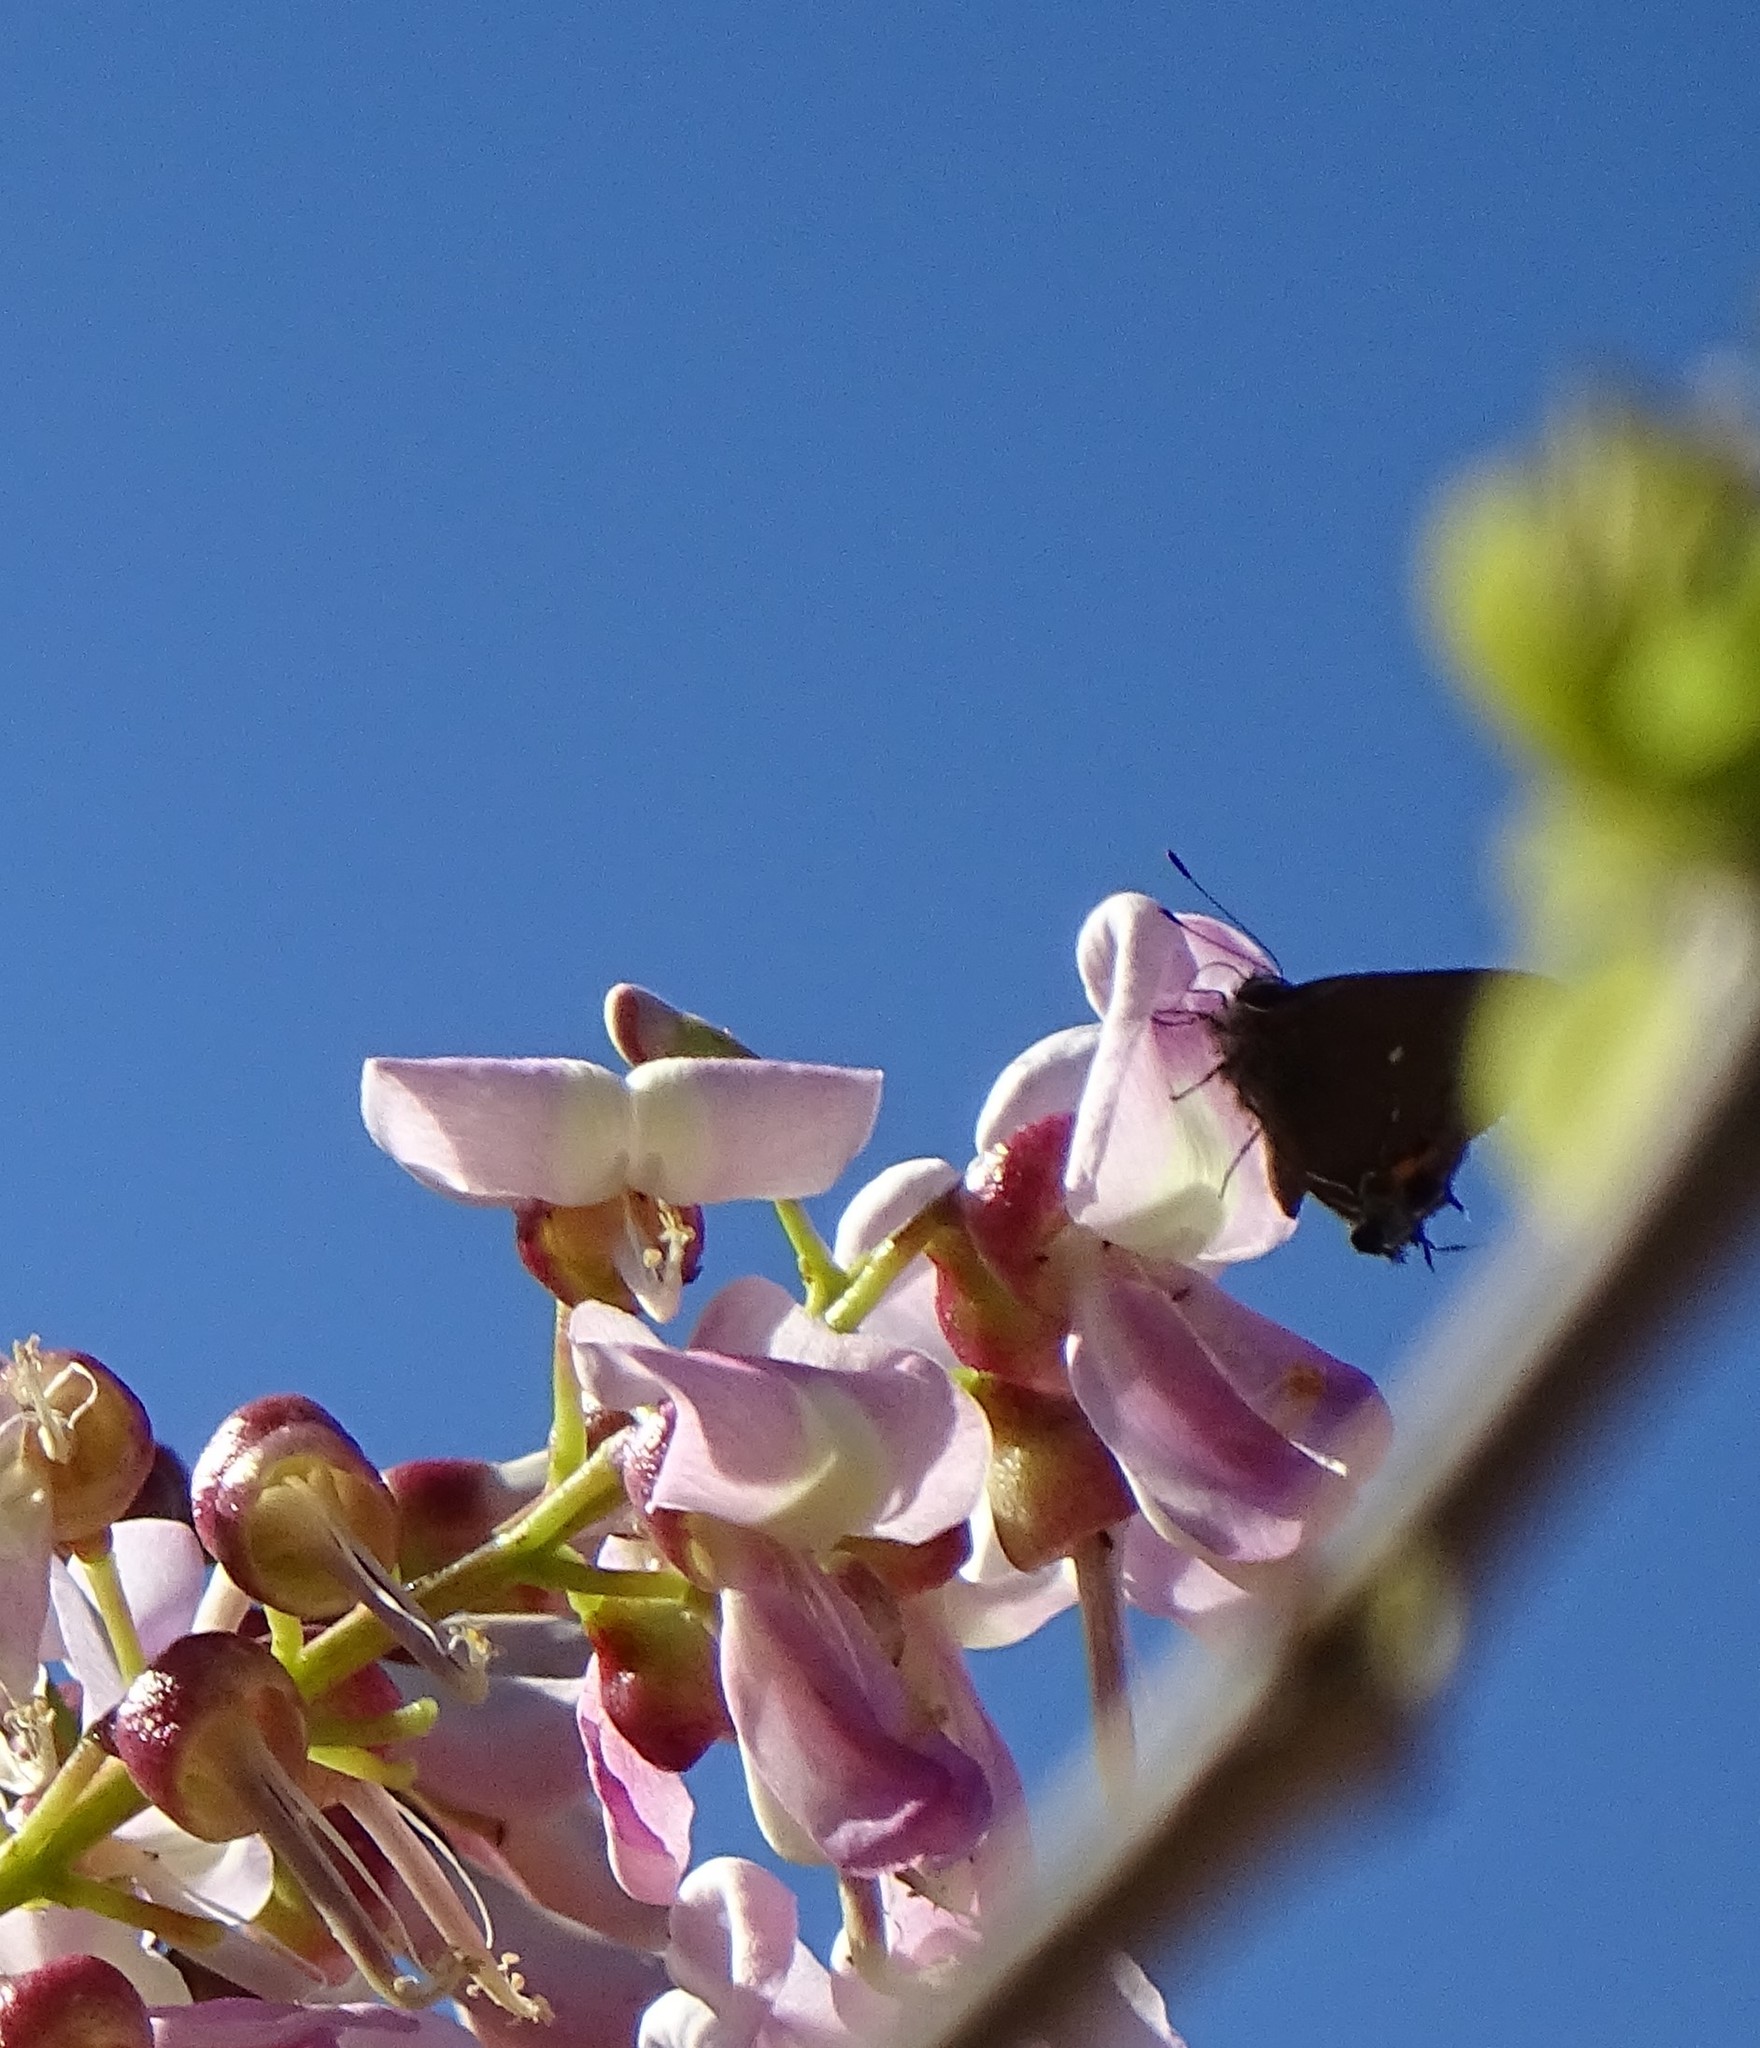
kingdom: Animalia
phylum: Arthropoda
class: Insecta
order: Lepidoptera
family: Lycaenidae
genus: Thecla
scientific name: Thecla angelia
